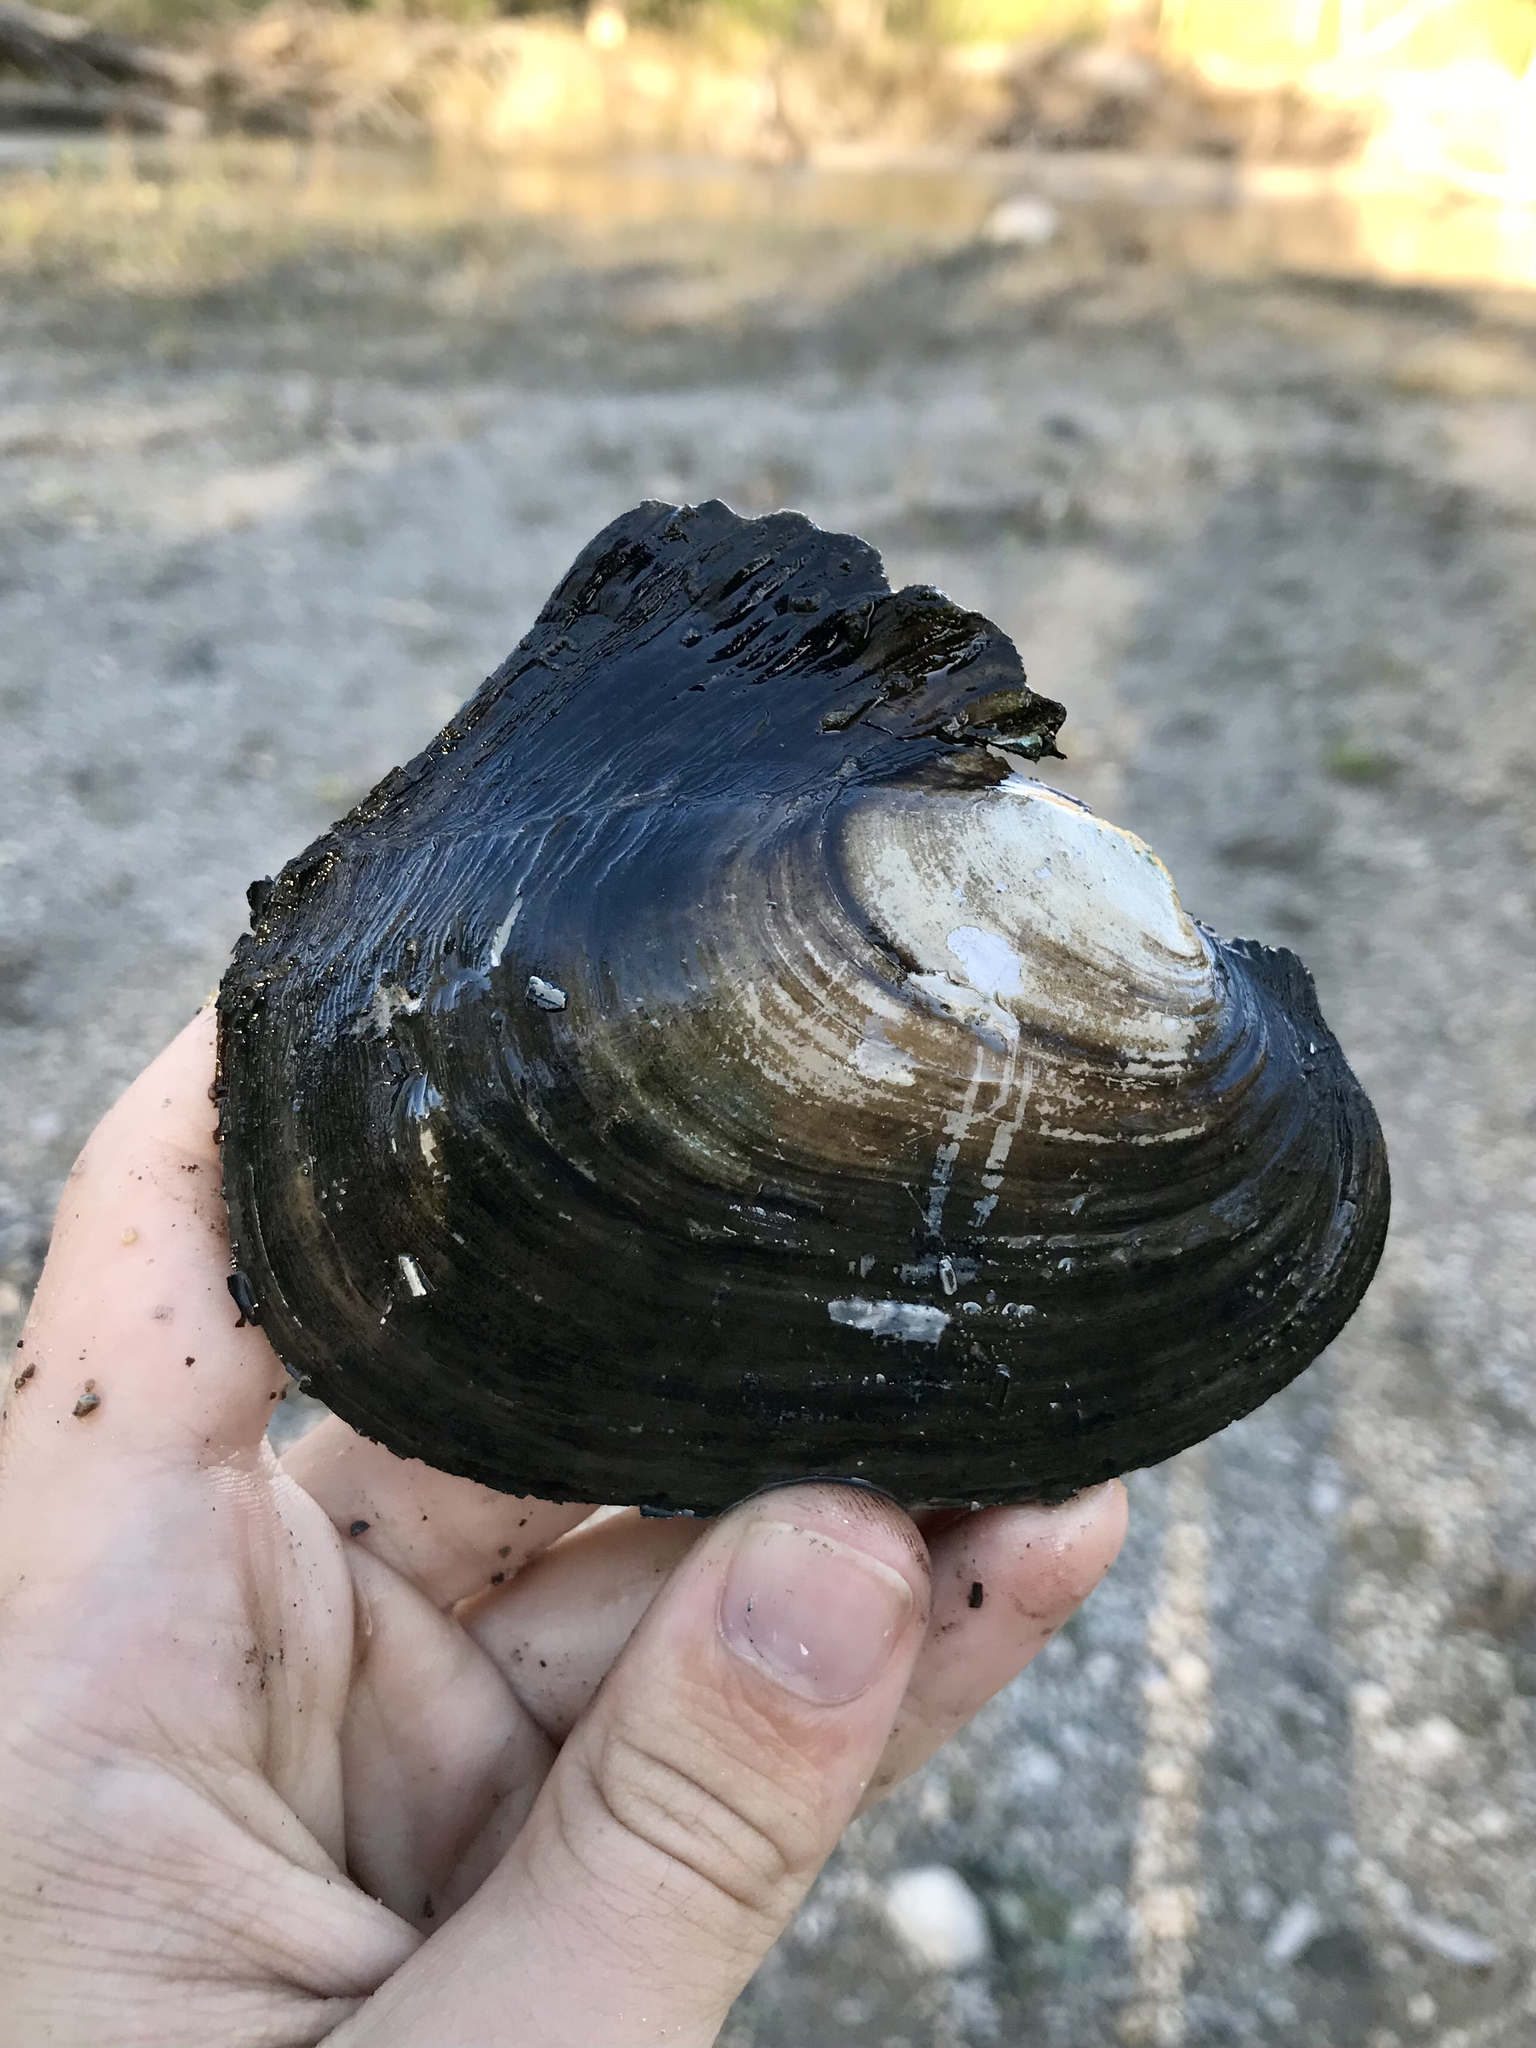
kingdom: Animalia
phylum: Mollusca
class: Bivalvia
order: Unionida
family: Unionidae
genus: Potamilus
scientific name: Potamilus alatus
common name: Pink heelsplitter
